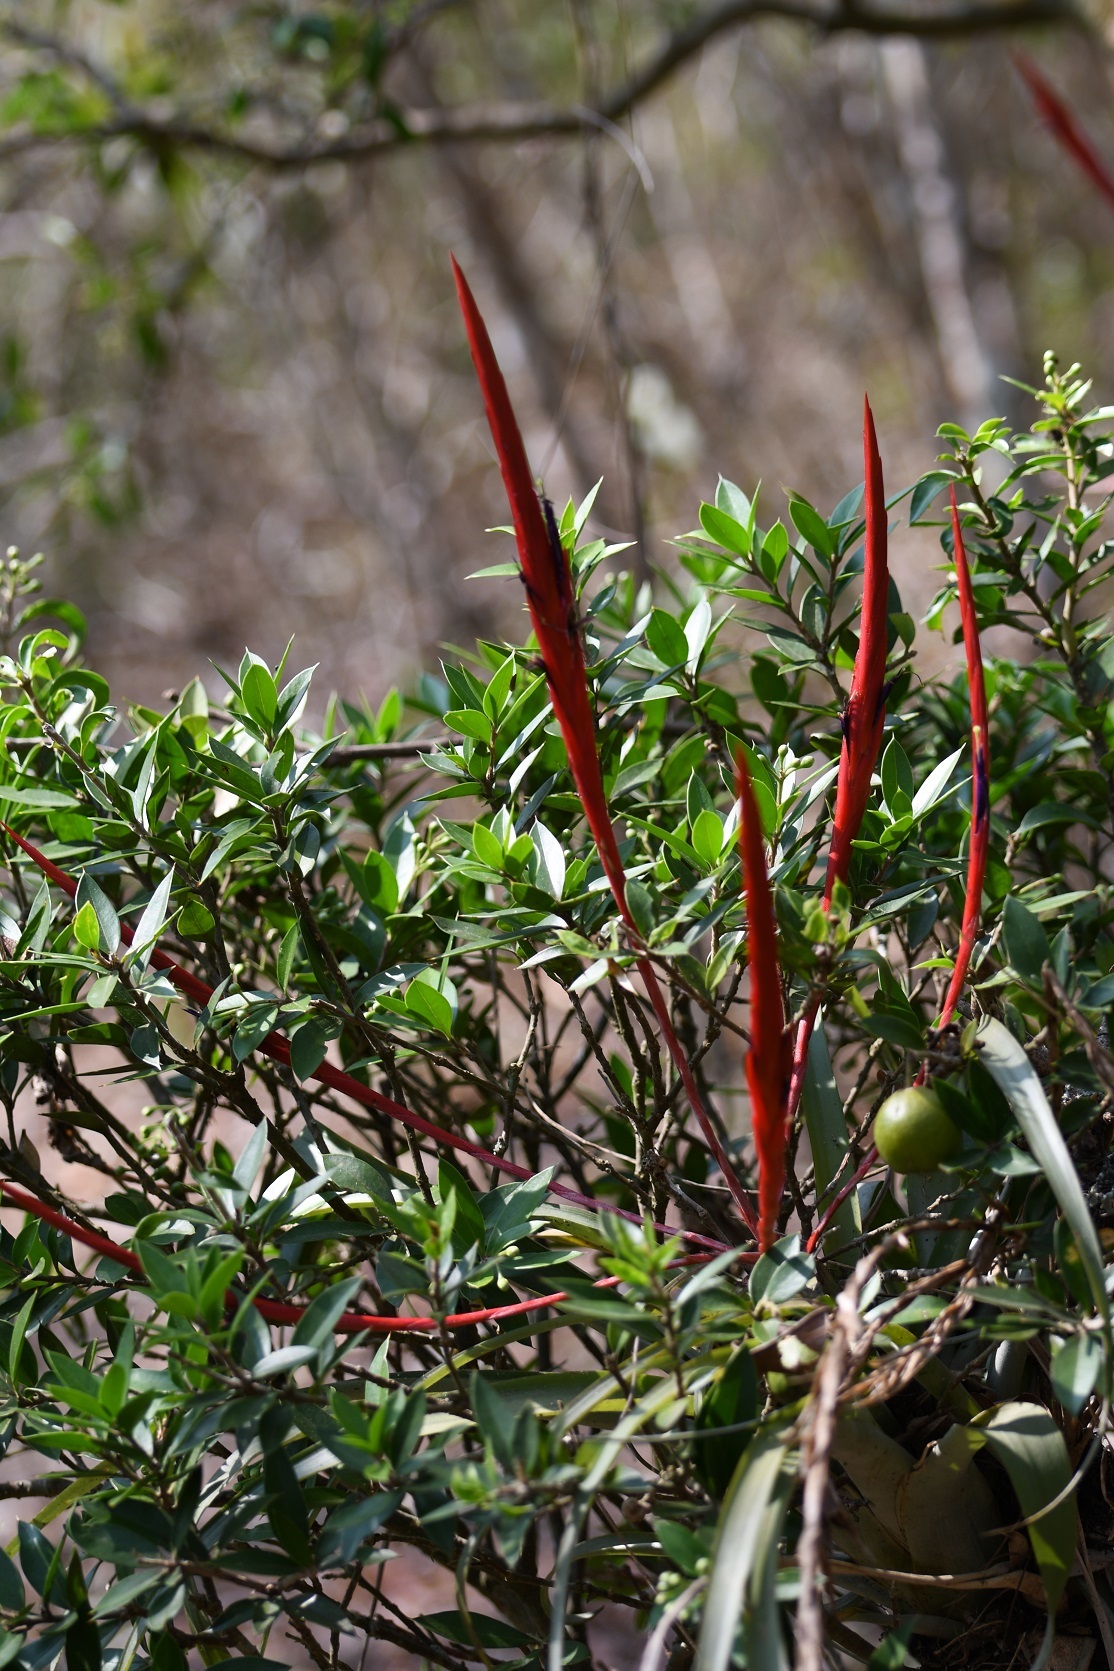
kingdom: Plantae
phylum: Tracheophyta
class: Liliopsida
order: Poales
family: Bromeliaceae
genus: Tillandsia
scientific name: Tillandsia flabellata
